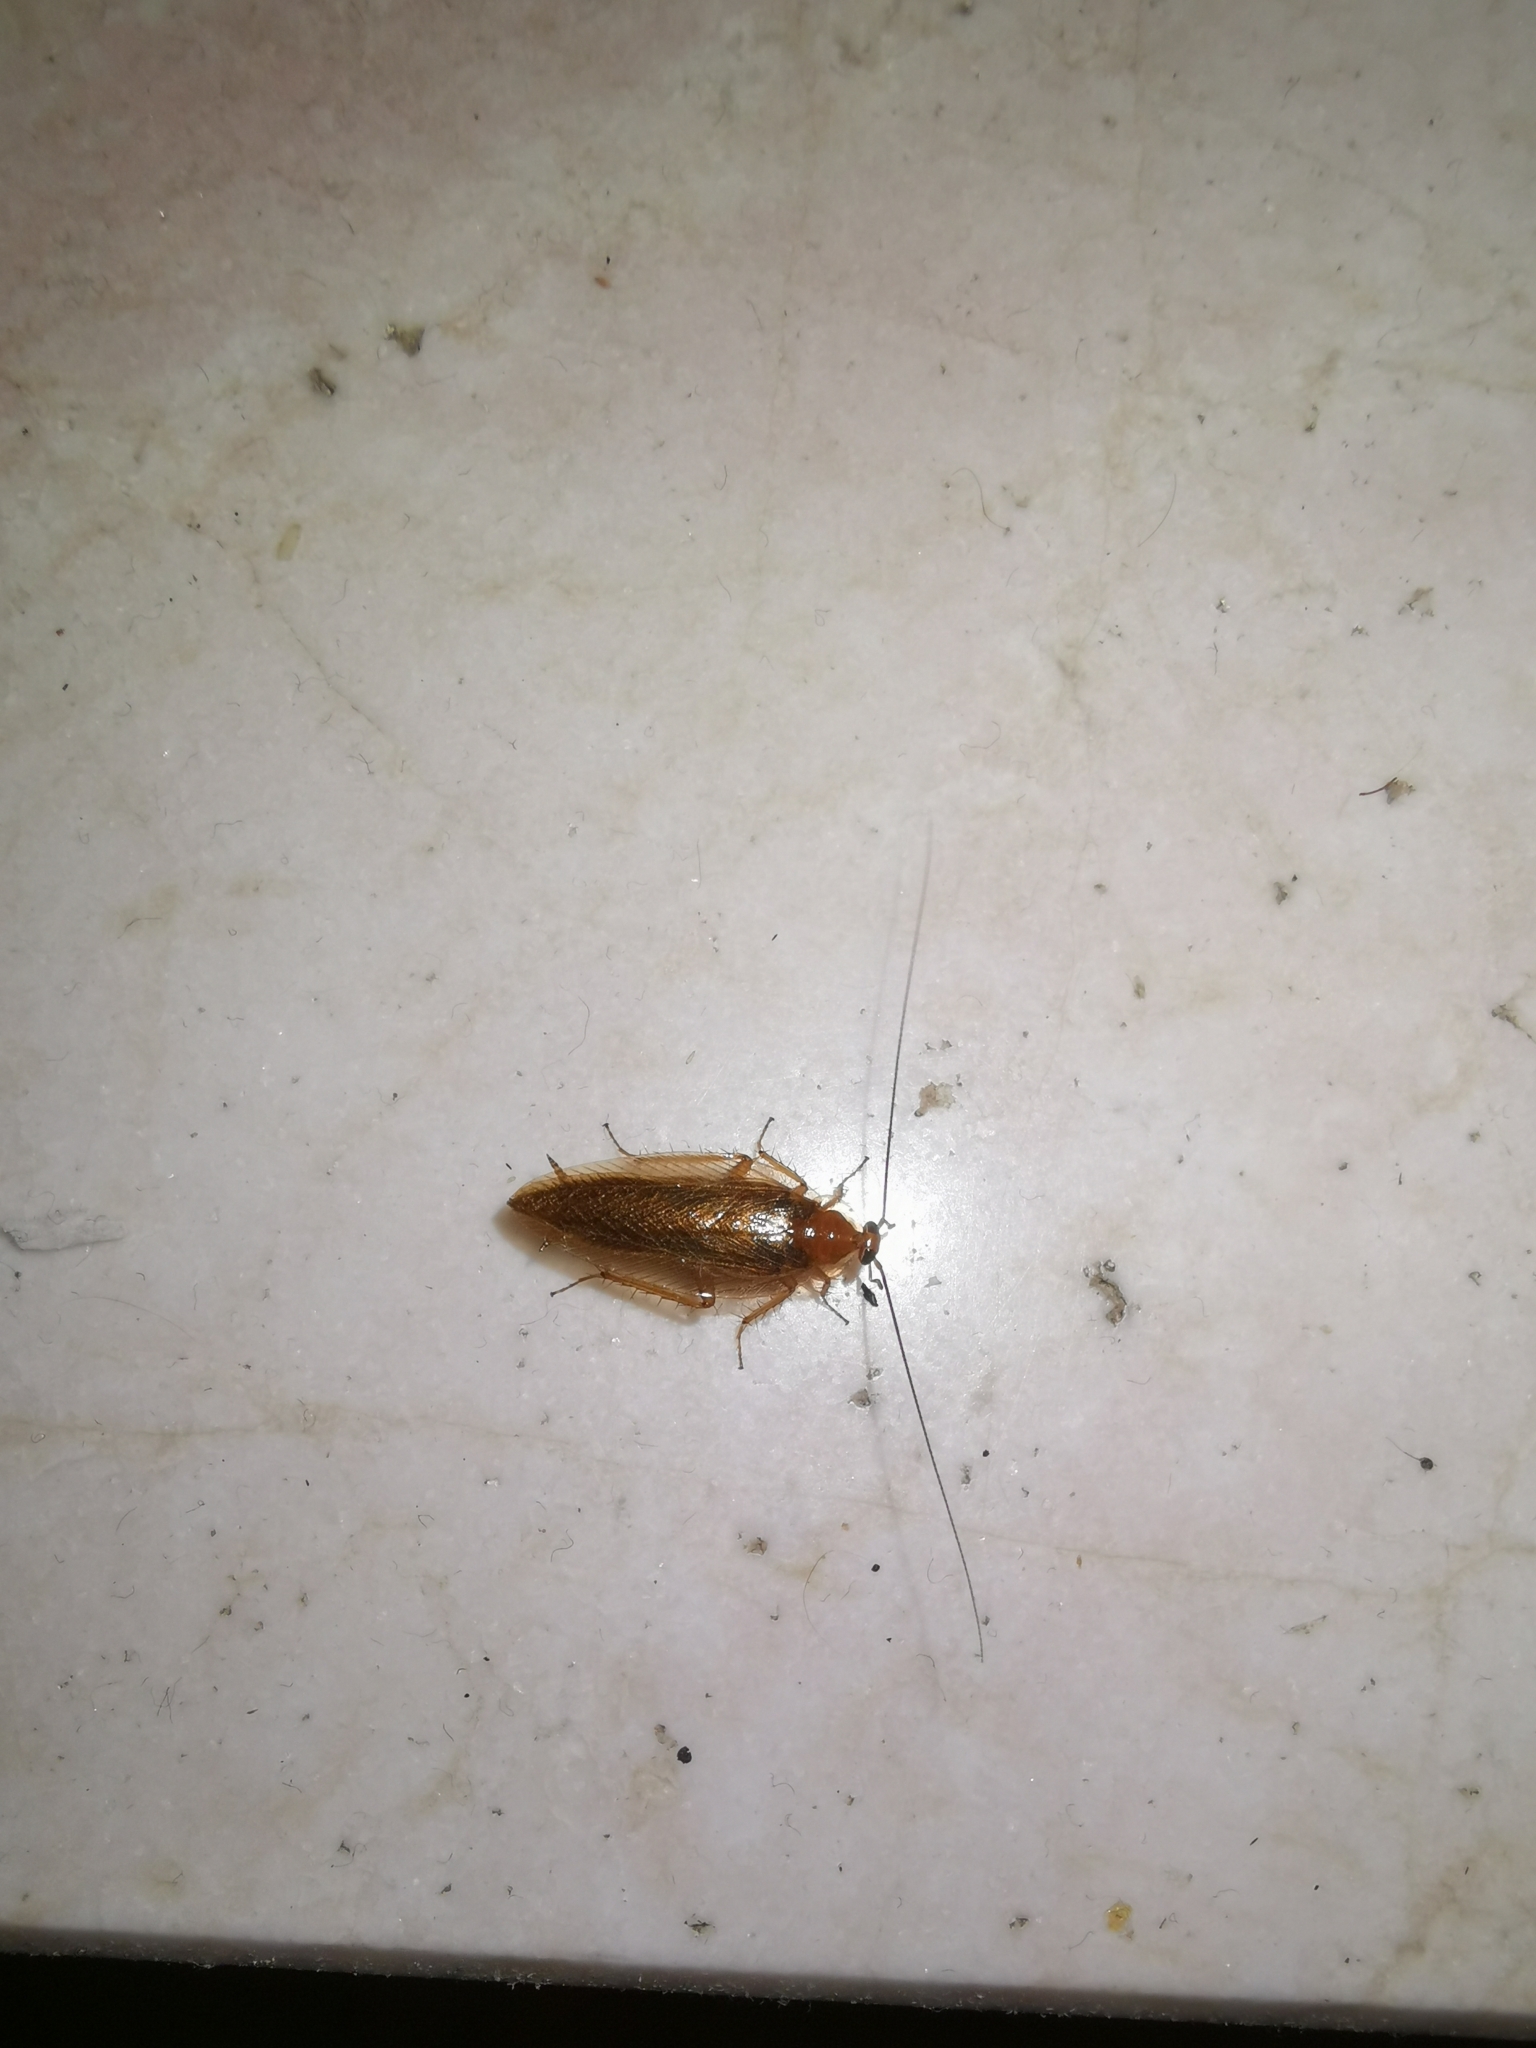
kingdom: Animalia
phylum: Arthropoda
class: Insecta
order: Blattodea
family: Ectobiidae
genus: Ectobius
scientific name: Ectobius vittiventris
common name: Garden cockroach
